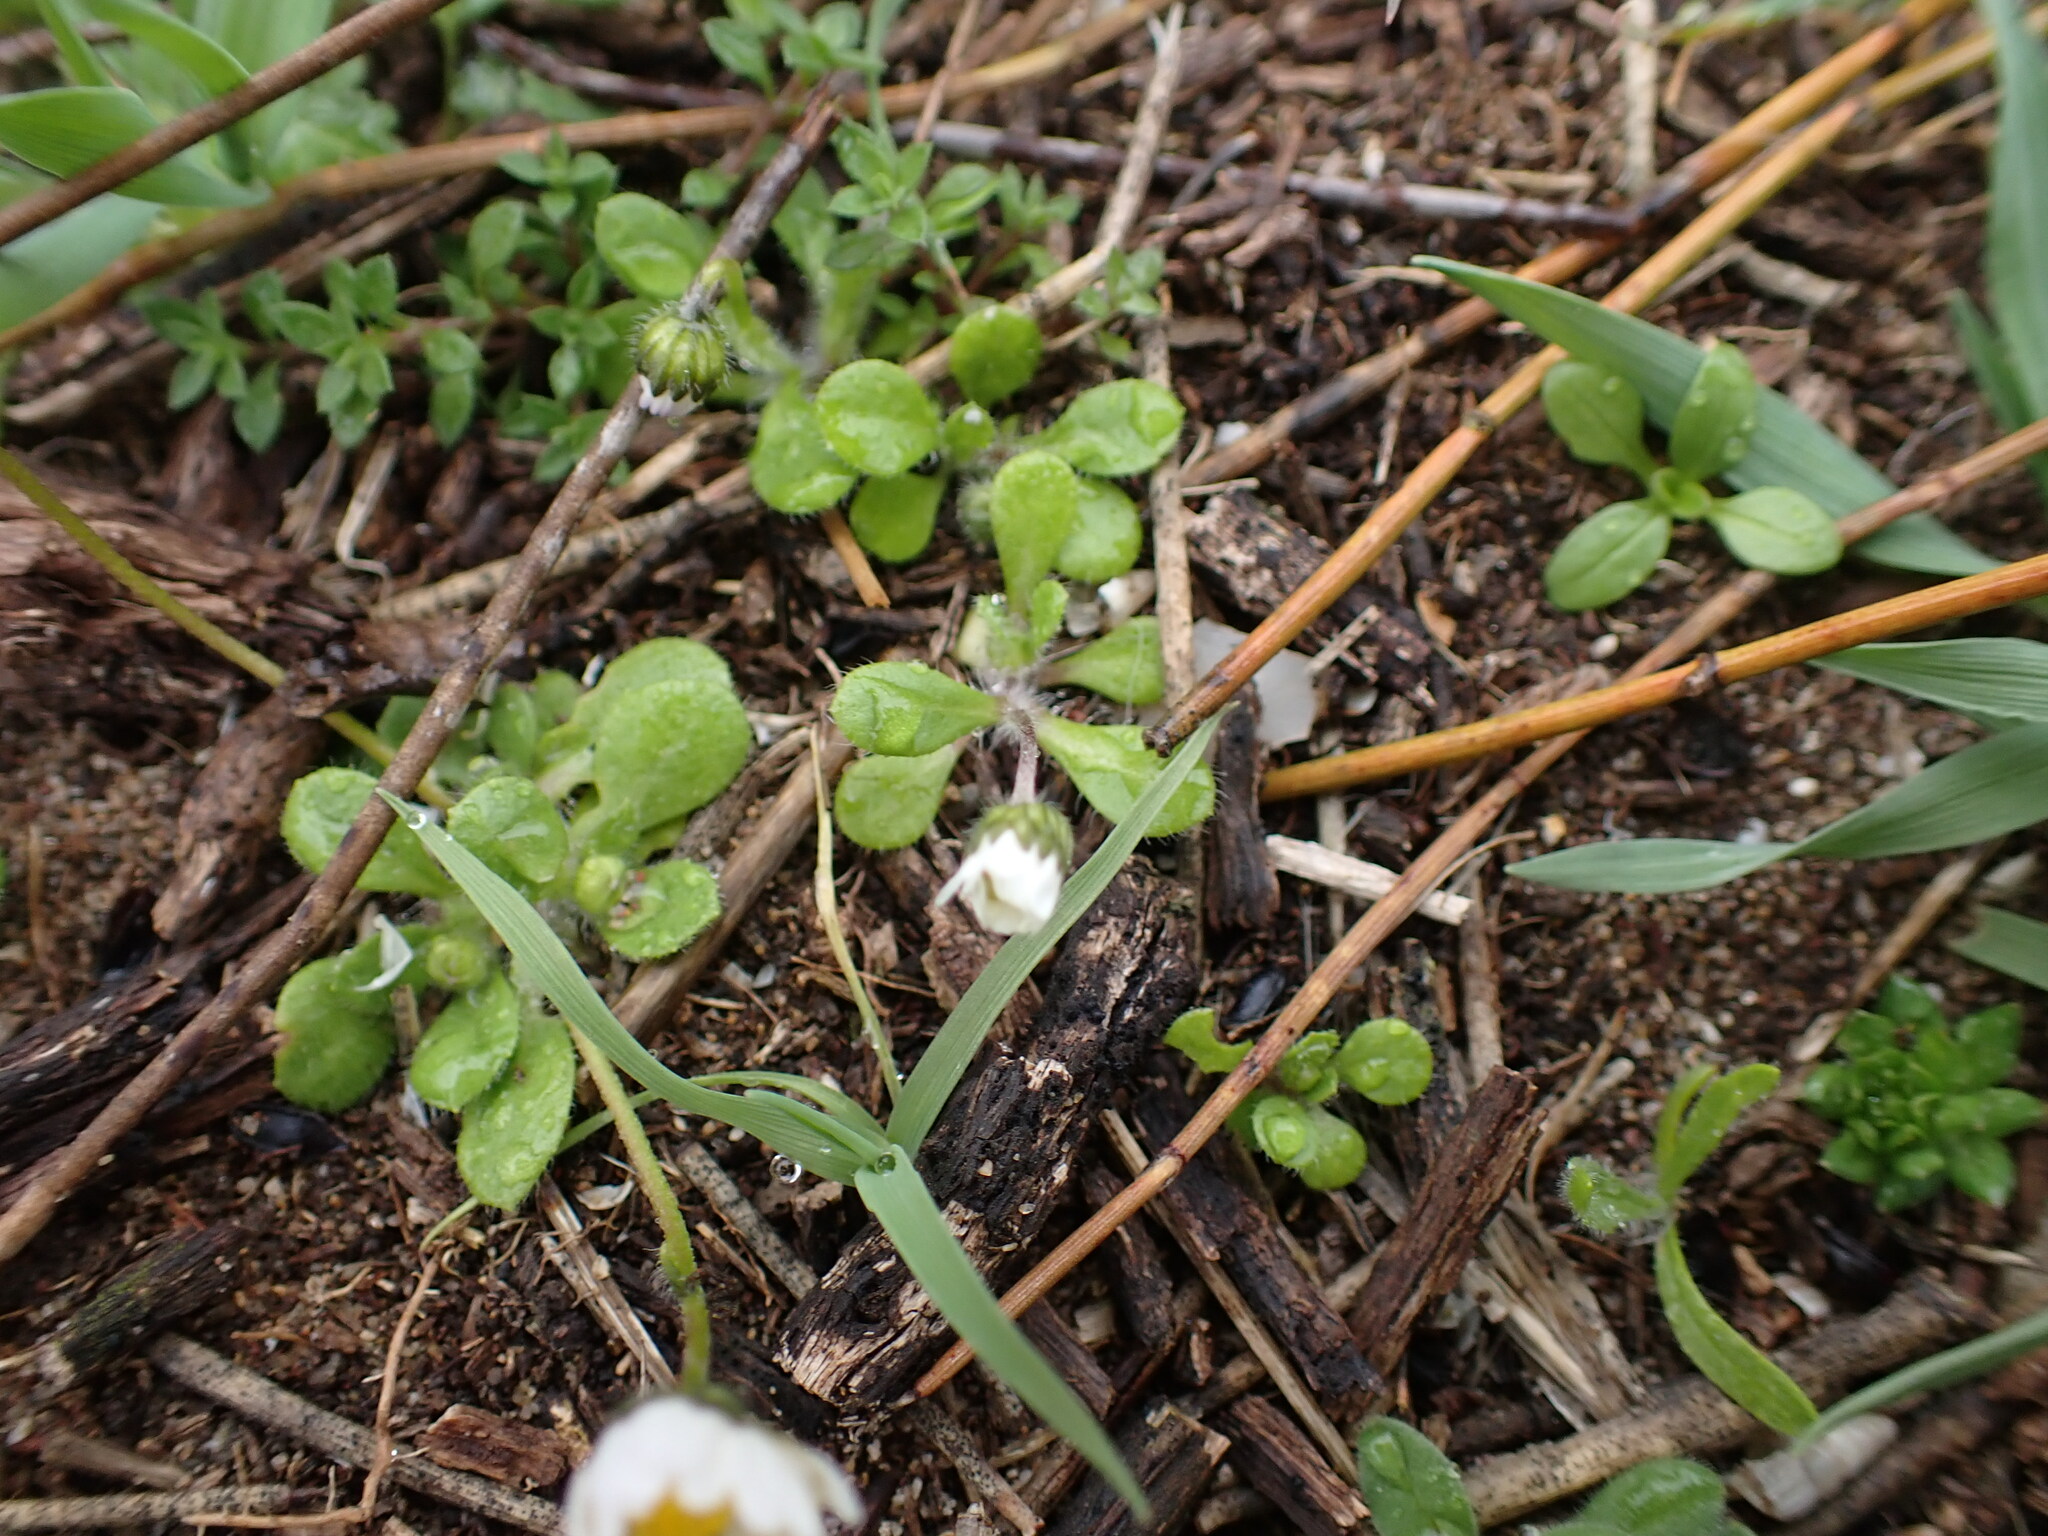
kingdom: Plantae
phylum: Tracheophyta
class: Magnoliopsida
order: Asterales
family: Asteraceae
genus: Bellis
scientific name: Bellis perennis
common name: Lawndaisy
